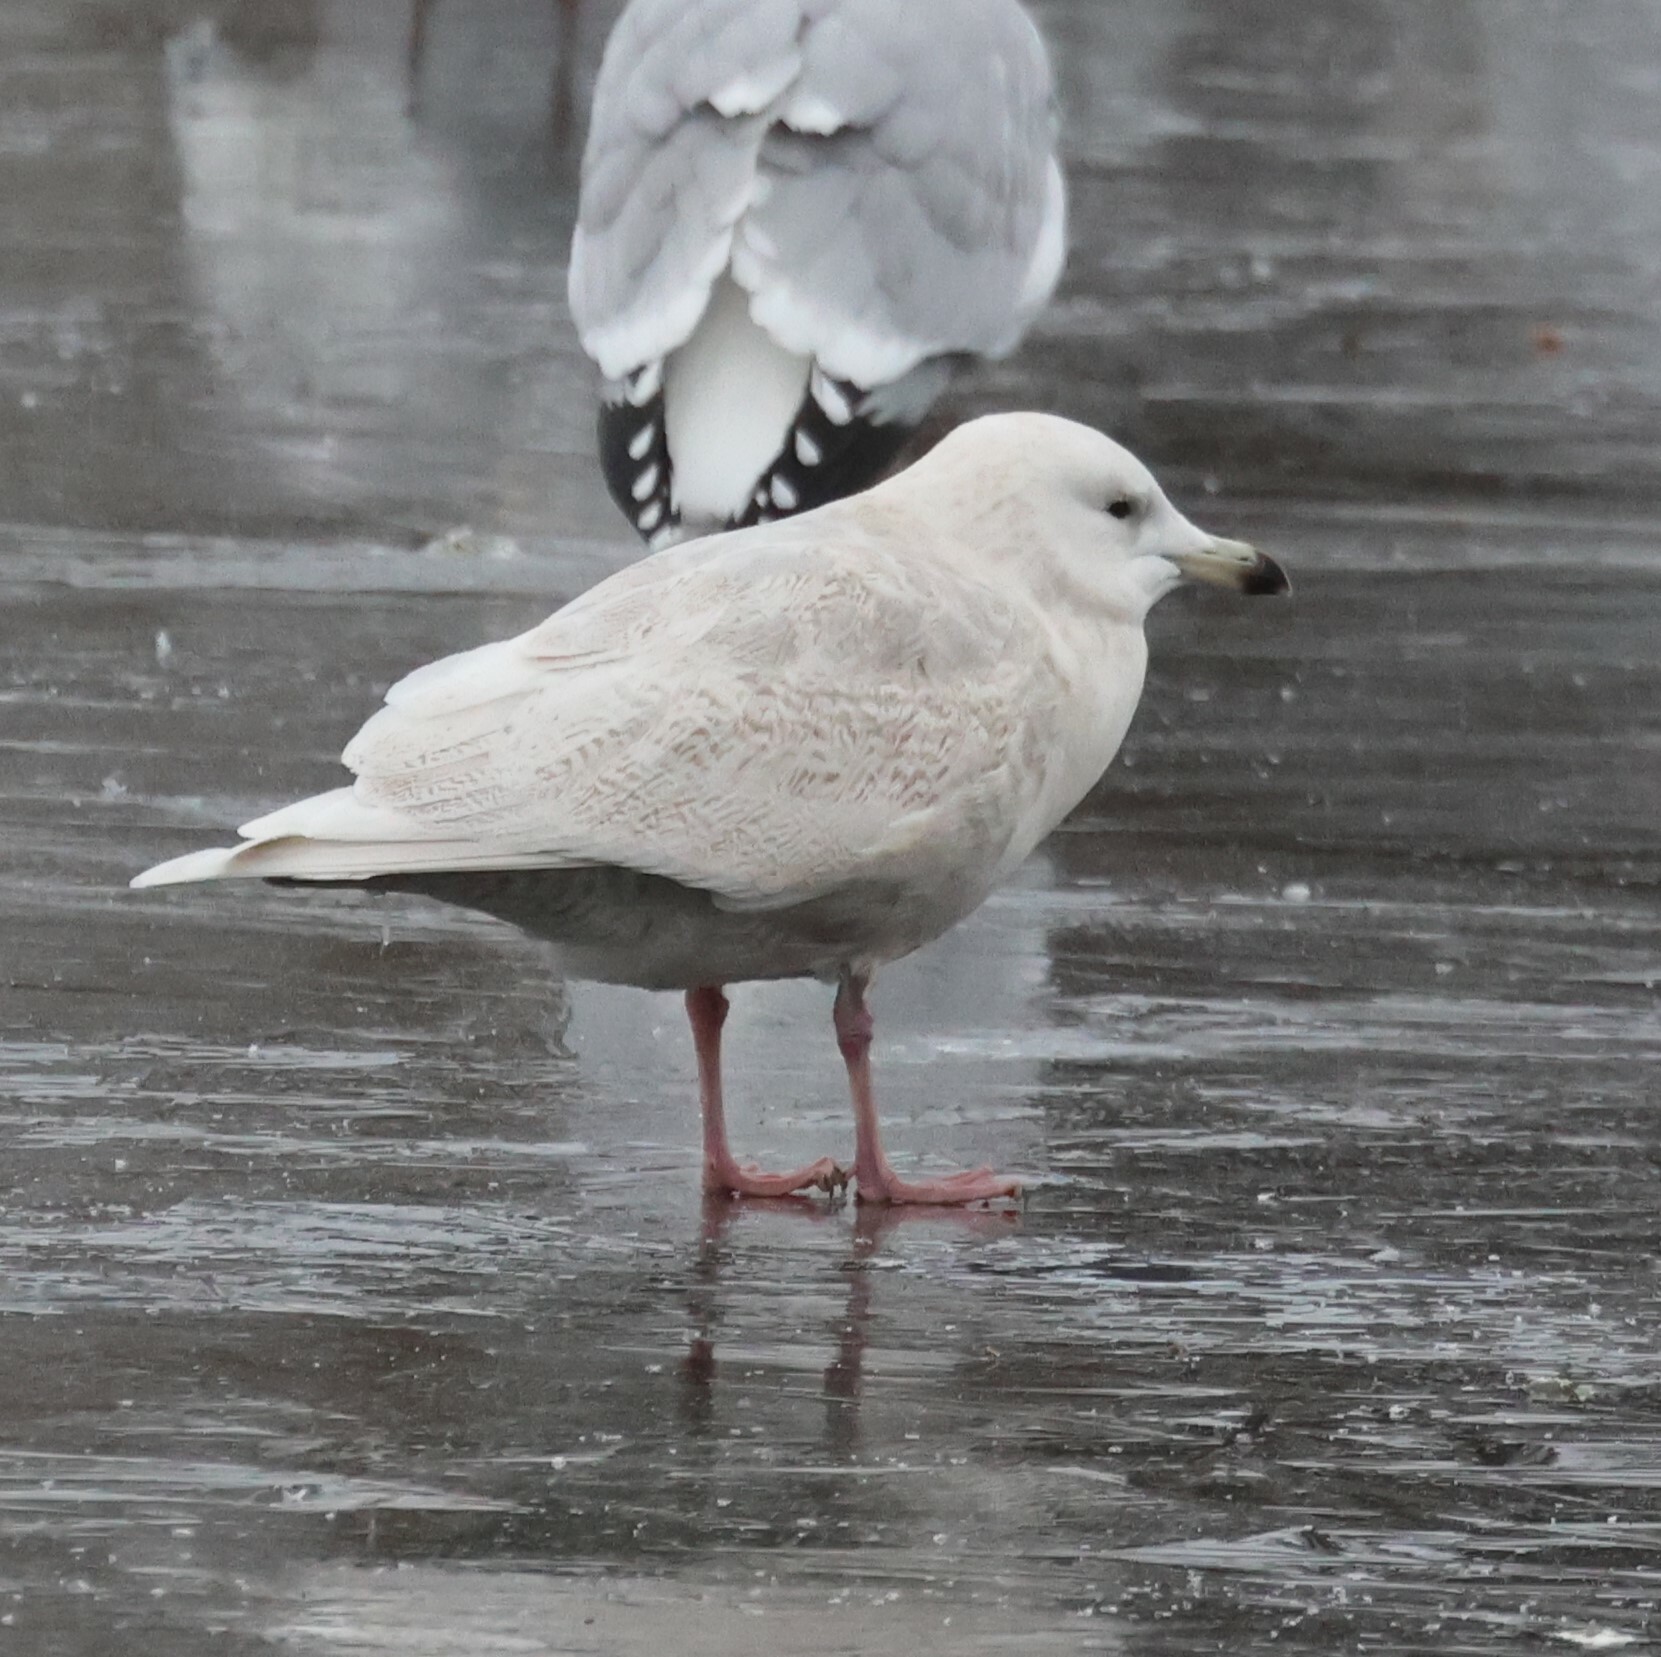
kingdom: Animalia
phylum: Chordata
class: Aves
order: Charadriiformes
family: Laridae
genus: Larus
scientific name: Larus glaucoides
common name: Iceland gull
